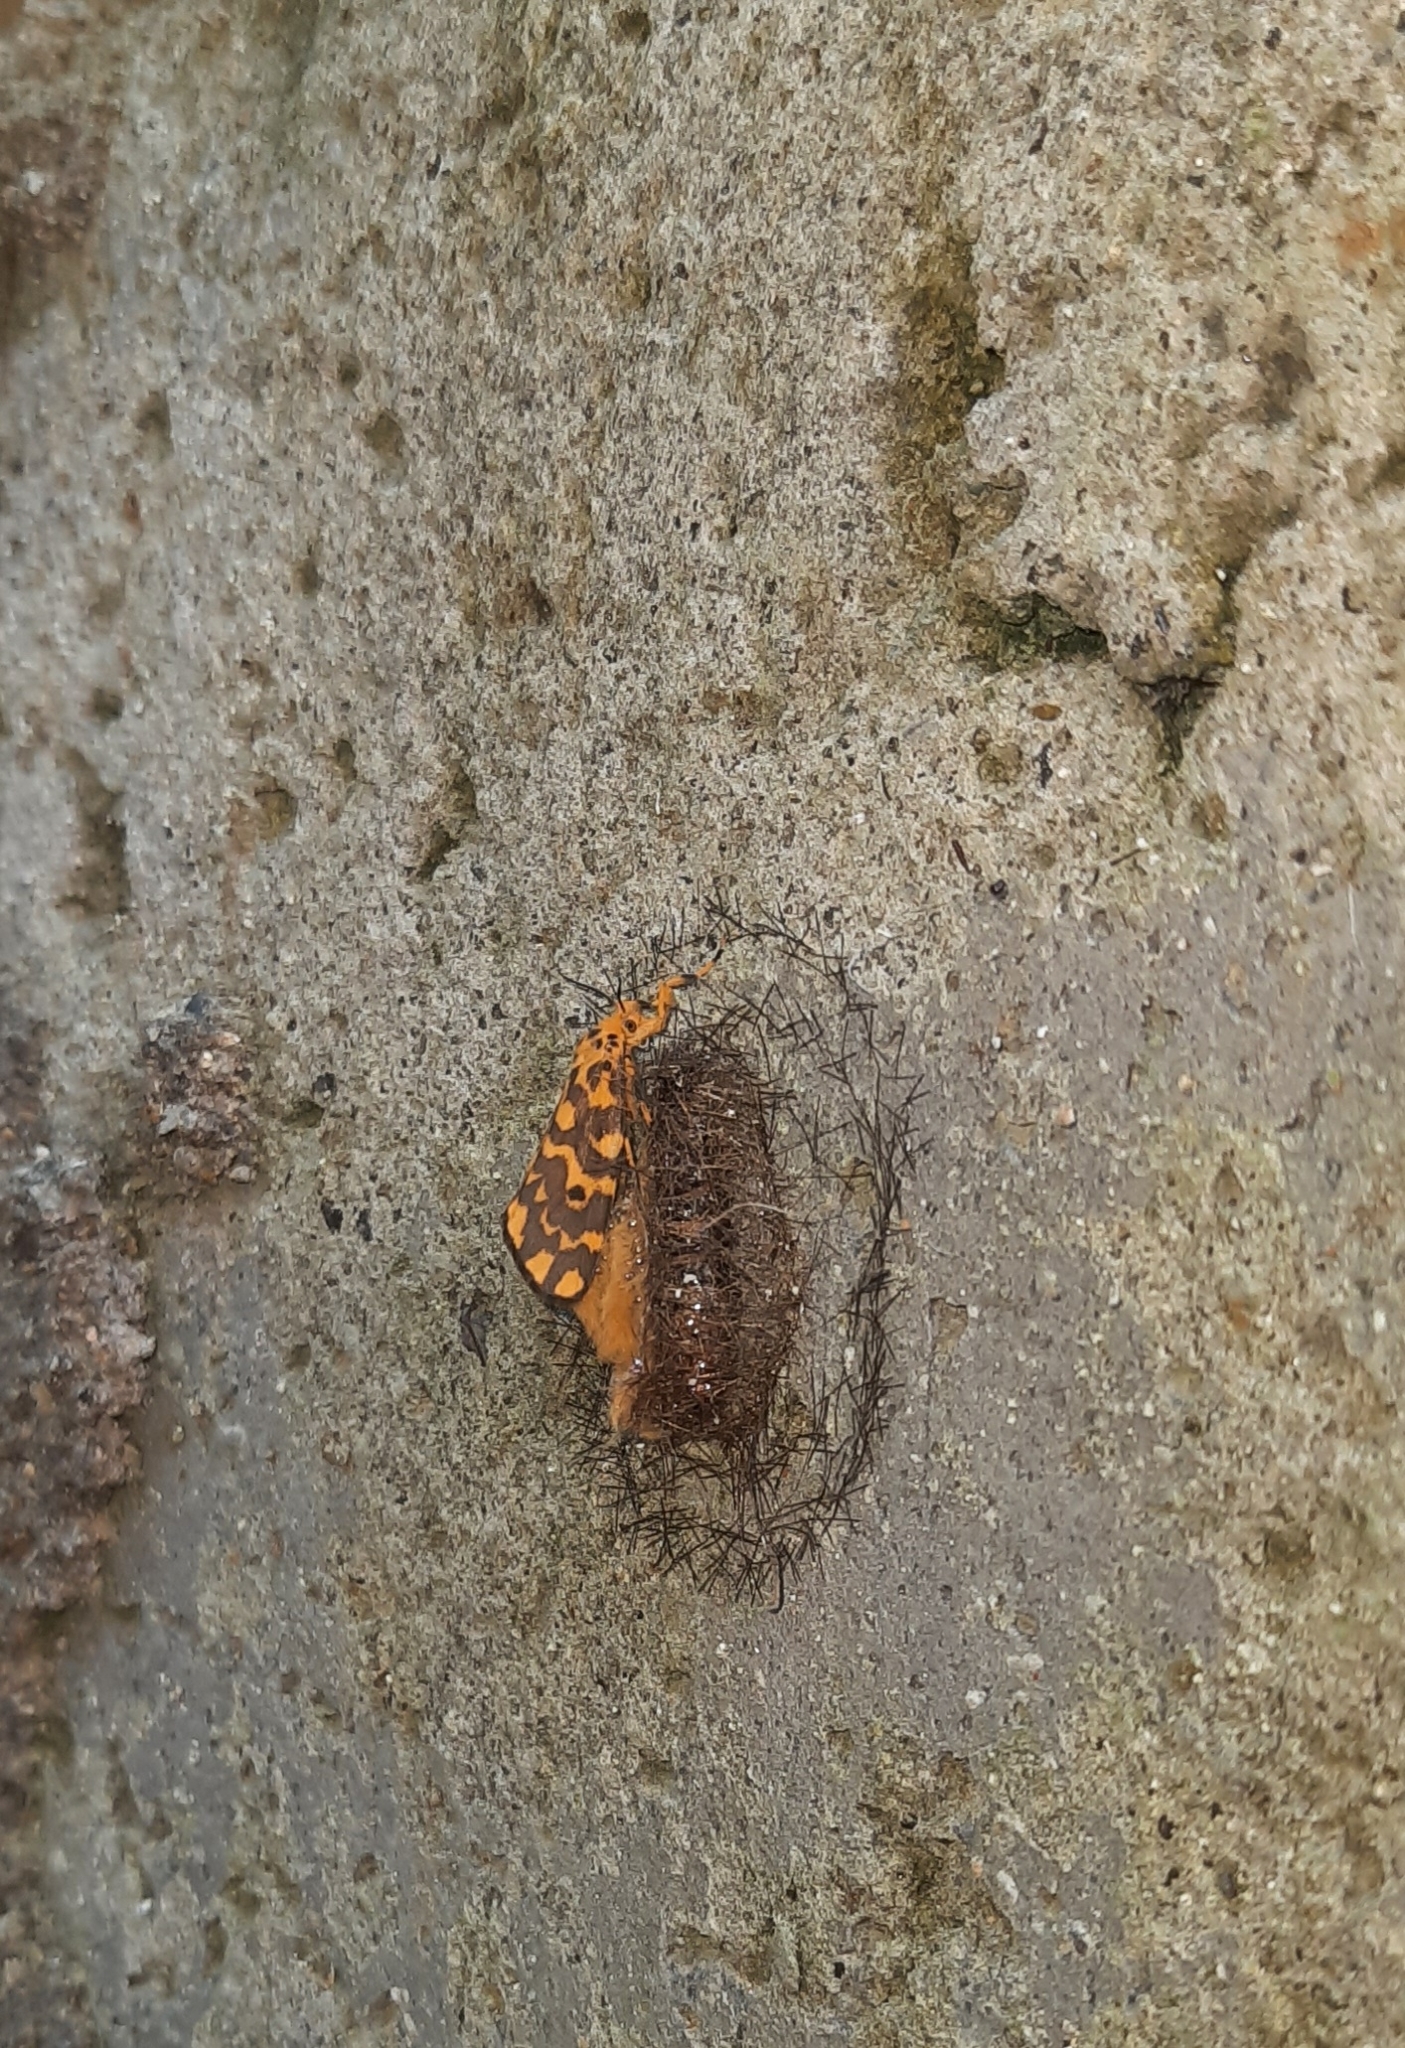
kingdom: Animalia
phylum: Arthropoda
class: Insecta
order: Lepidoptera
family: Erebidae
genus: Nepita
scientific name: Nepita conferta
